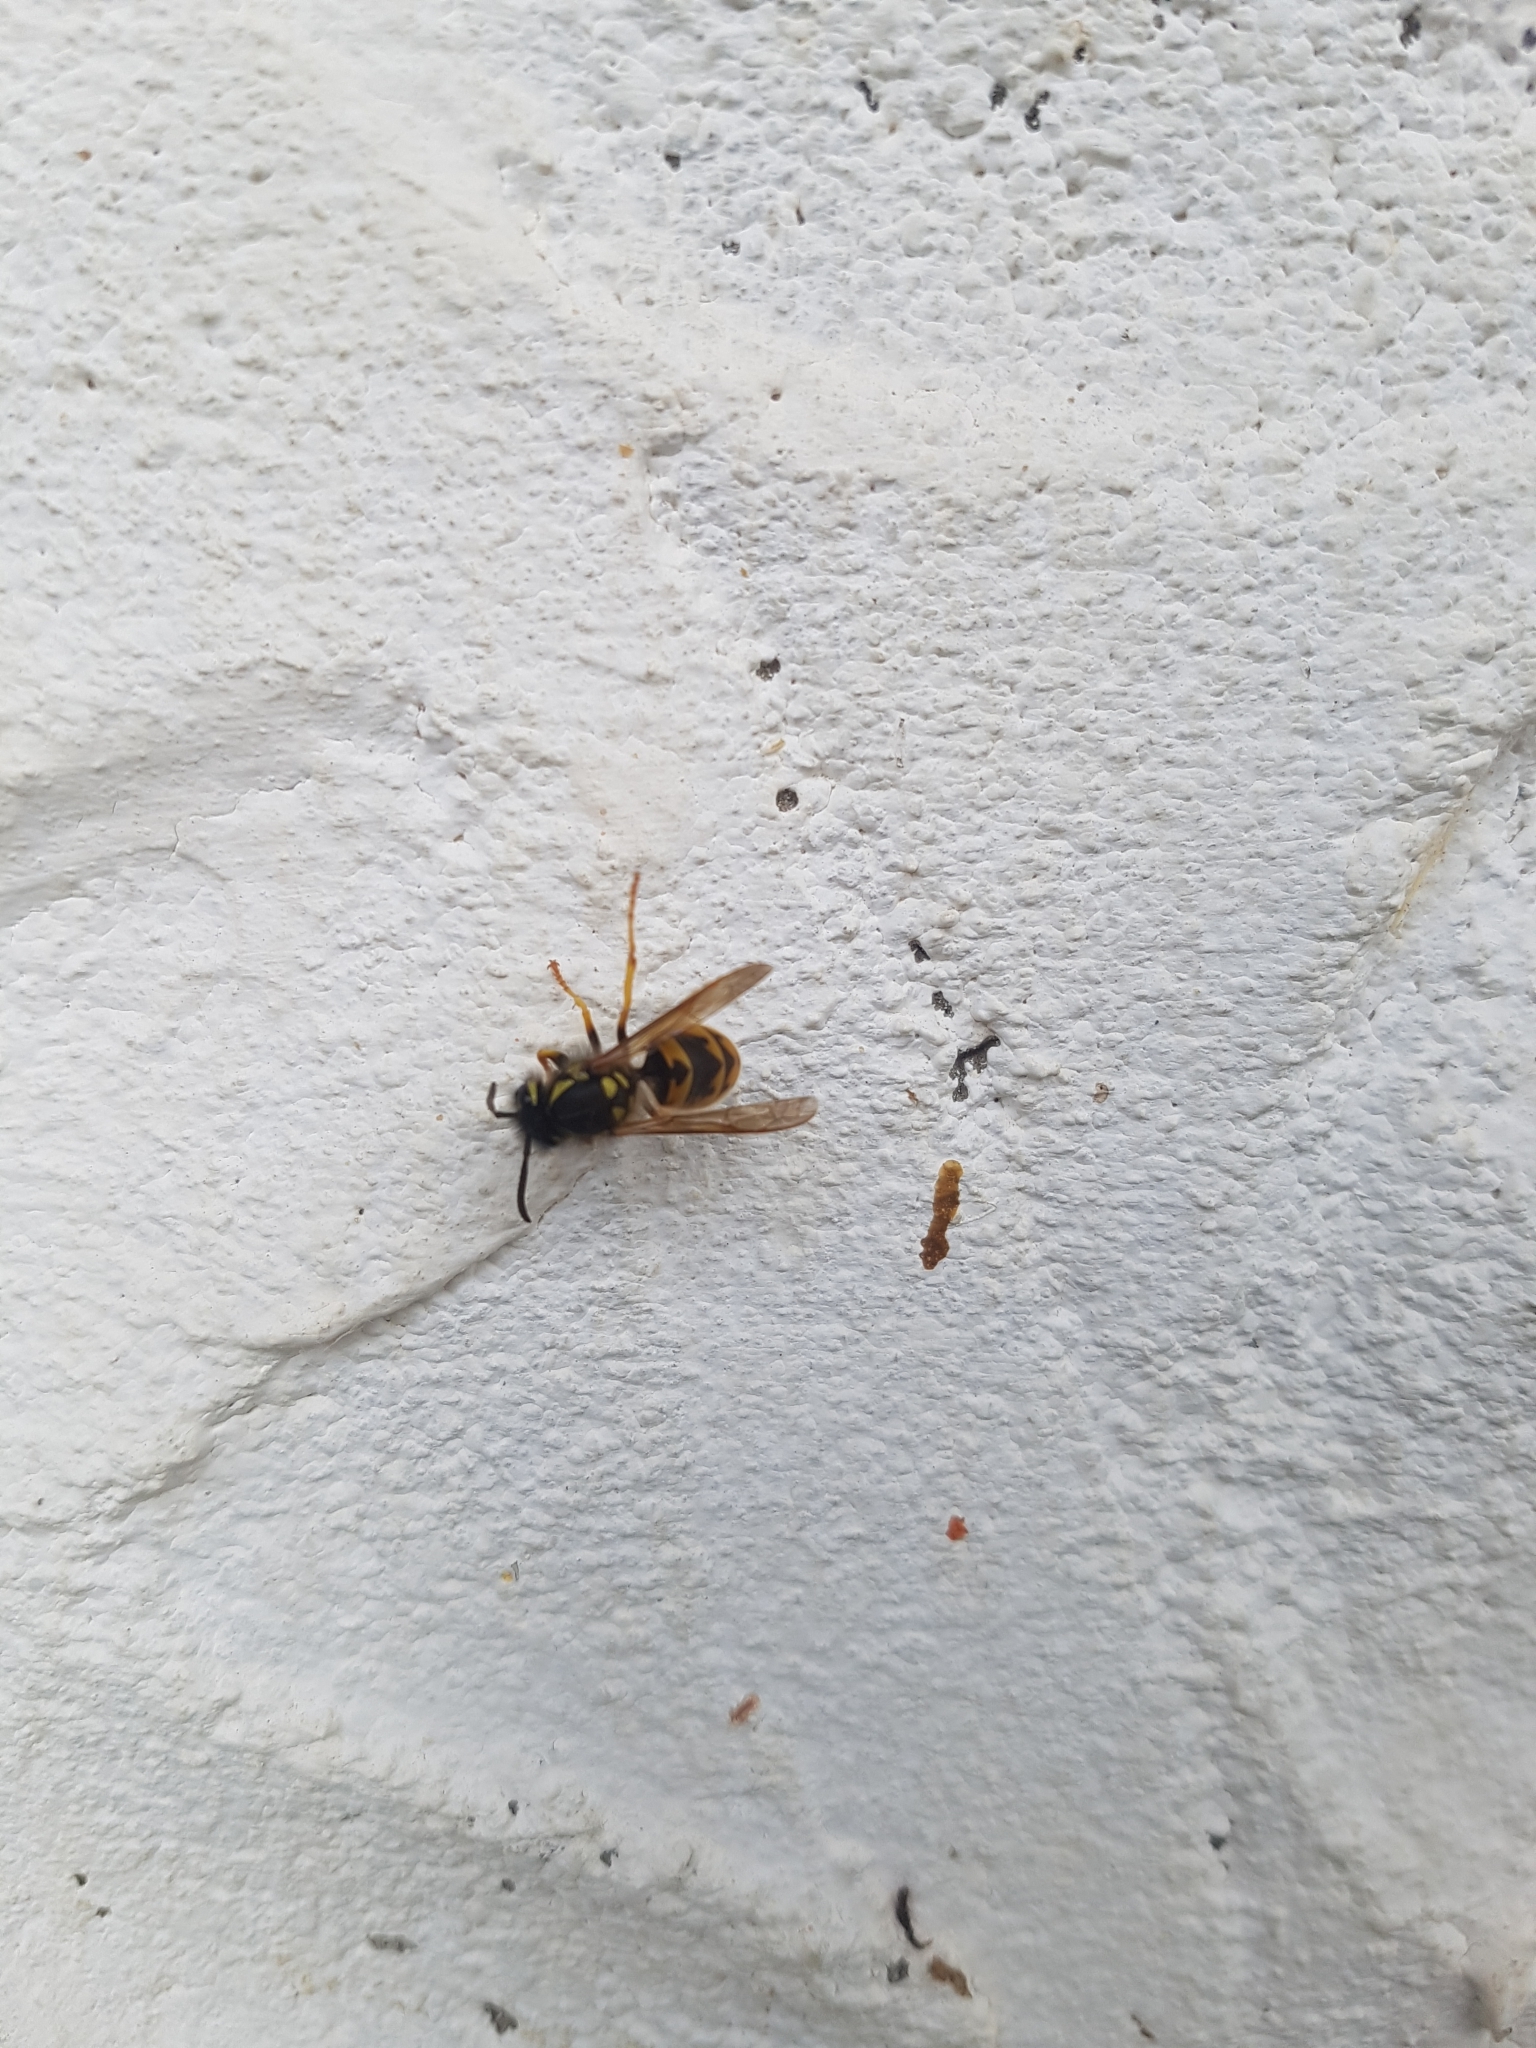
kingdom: Animalia
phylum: Arthropoda
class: Insecta
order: Hymenoptera
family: Vespidae
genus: Vespula
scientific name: Vespula germanica
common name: German wasp
